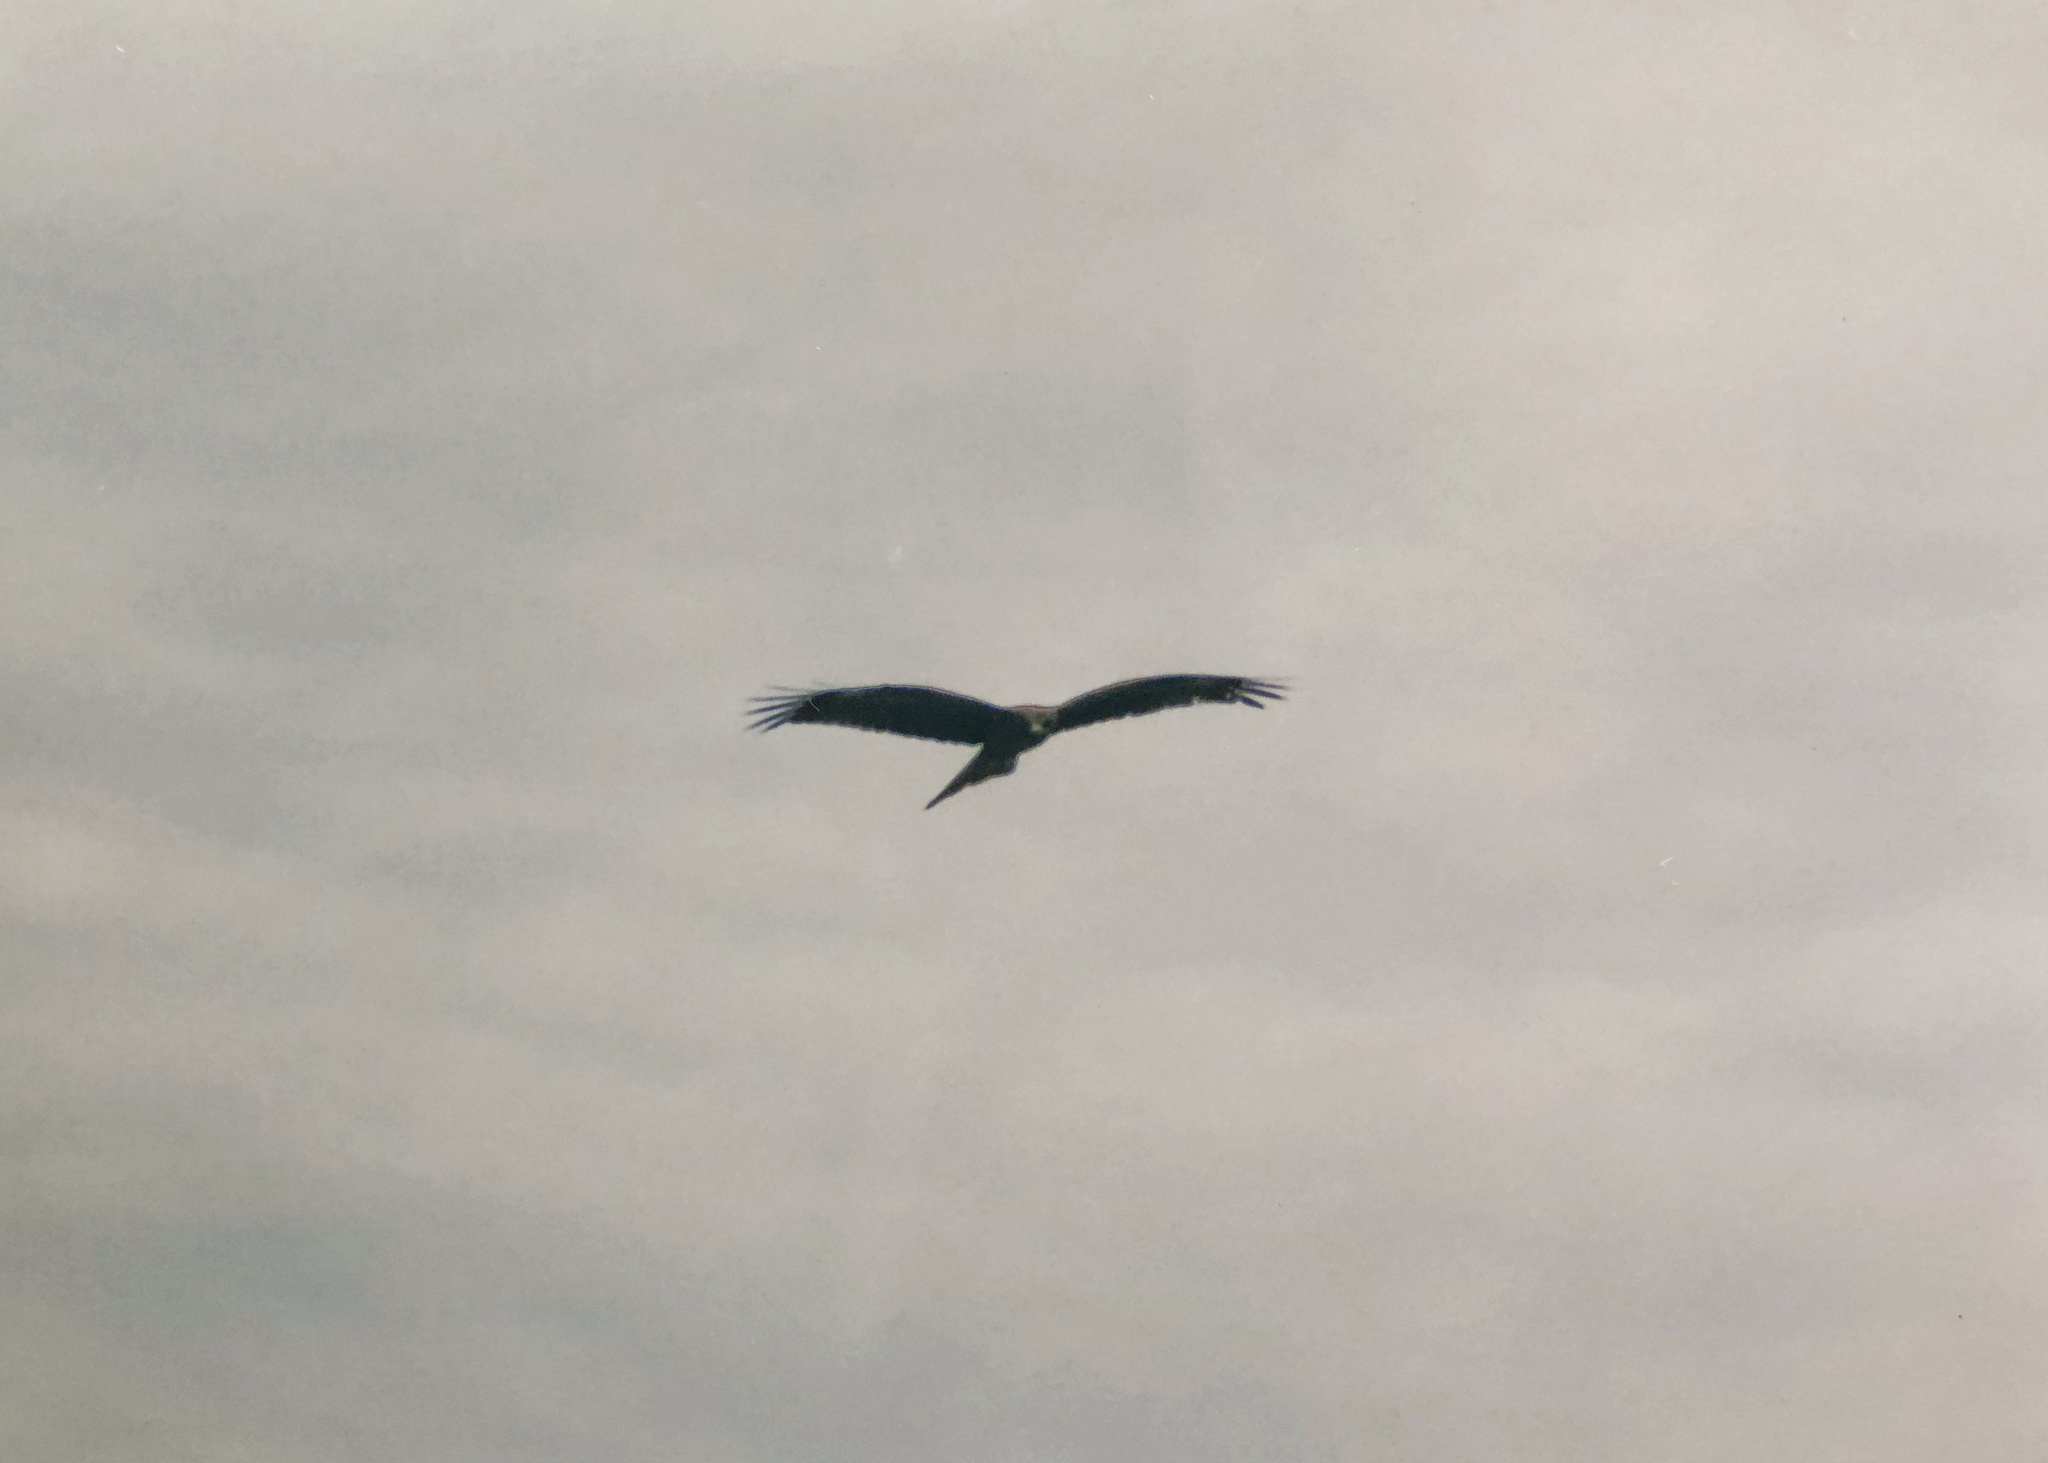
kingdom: Animalia
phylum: Chordata
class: Aves
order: Accipitriformes
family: Accipitridae
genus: Milvus
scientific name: Milvus migrans
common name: Black kite
